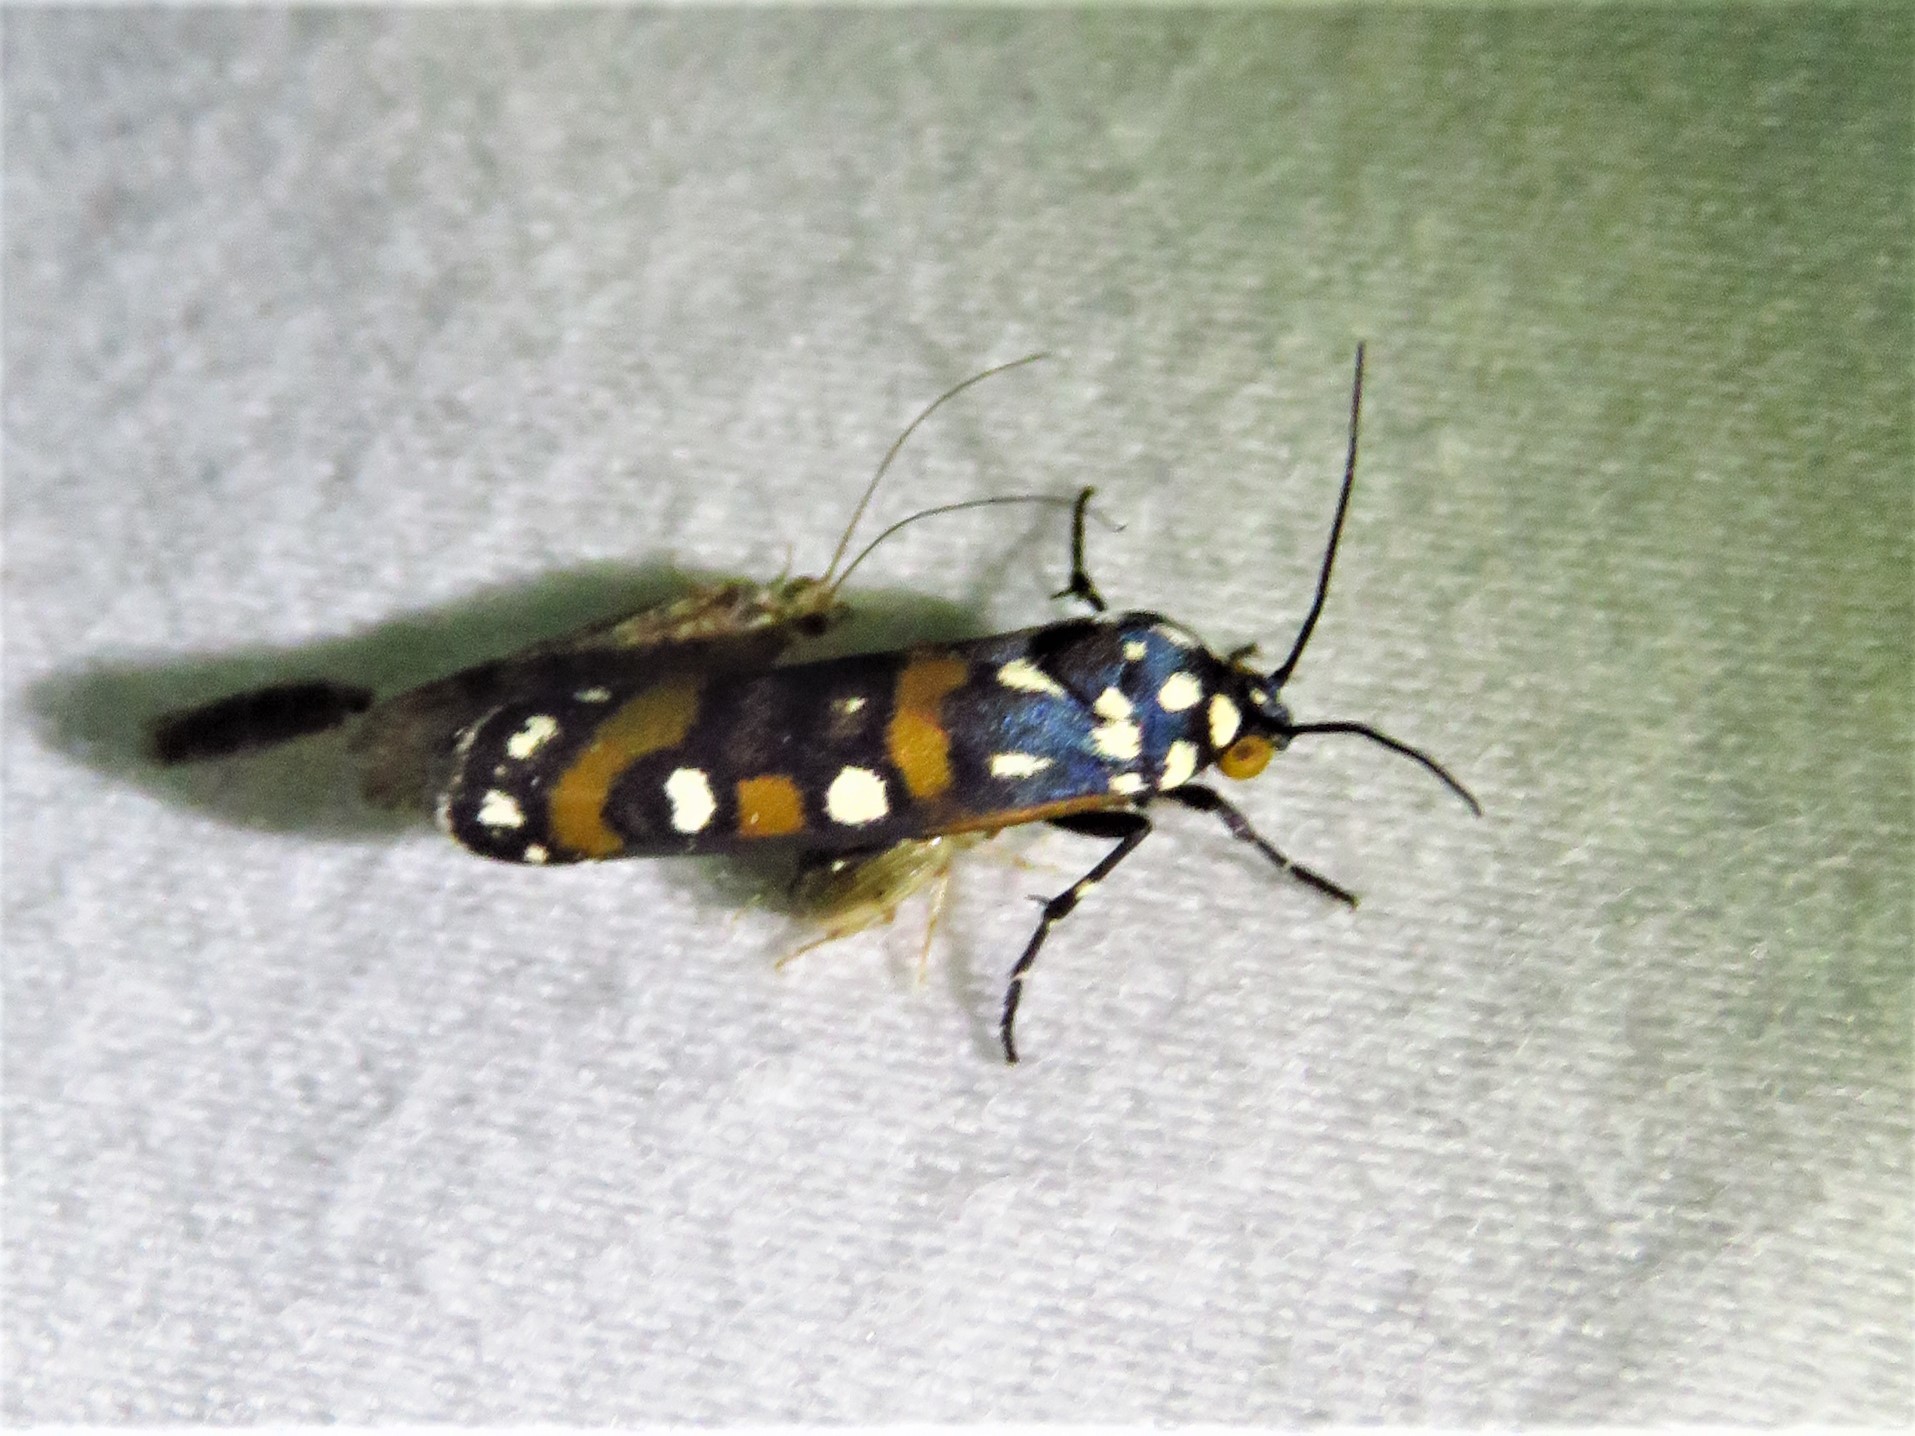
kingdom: Animalia
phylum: Arthropoda
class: Insecta
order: Lepidoptera
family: Noctuidae
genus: Cydosia
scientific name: Cydosia aurivitta
